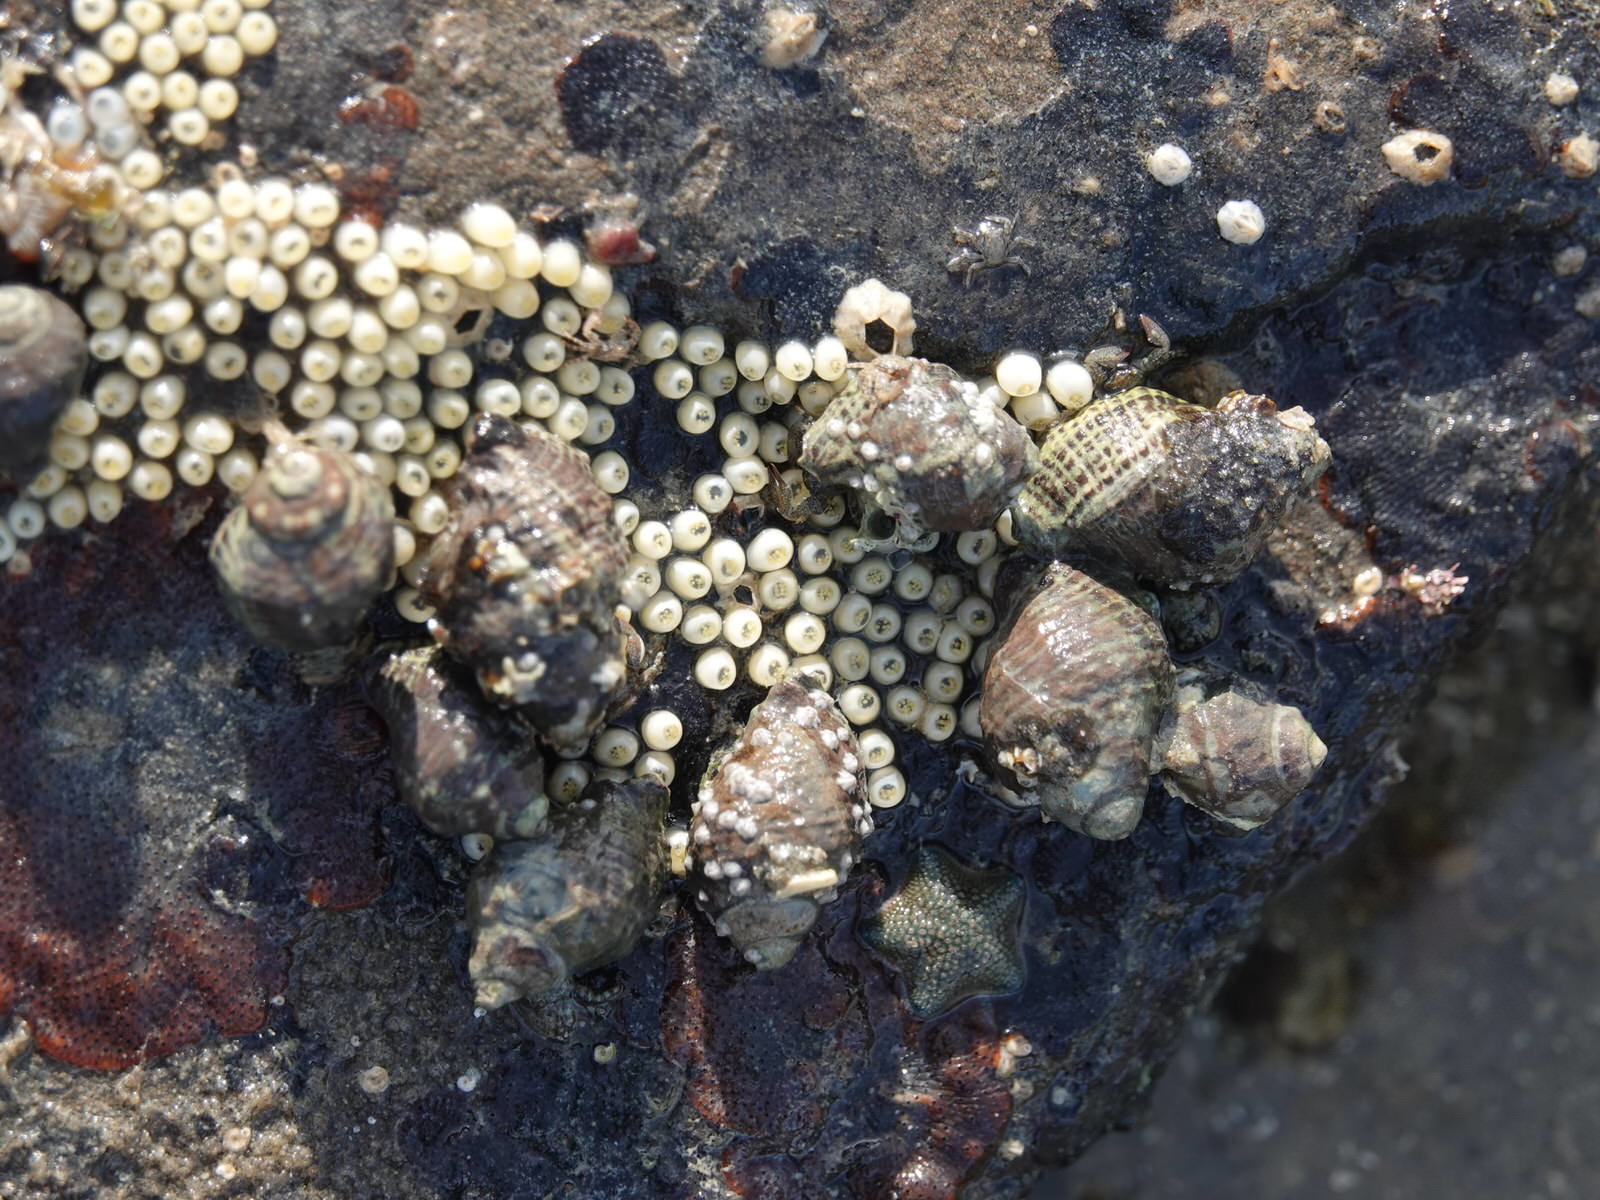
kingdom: Animalia
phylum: Mollusca
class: Gastropoda
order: Neogastropoda
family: Muricidae
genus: Haustrum
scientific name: Haustrum scobina
